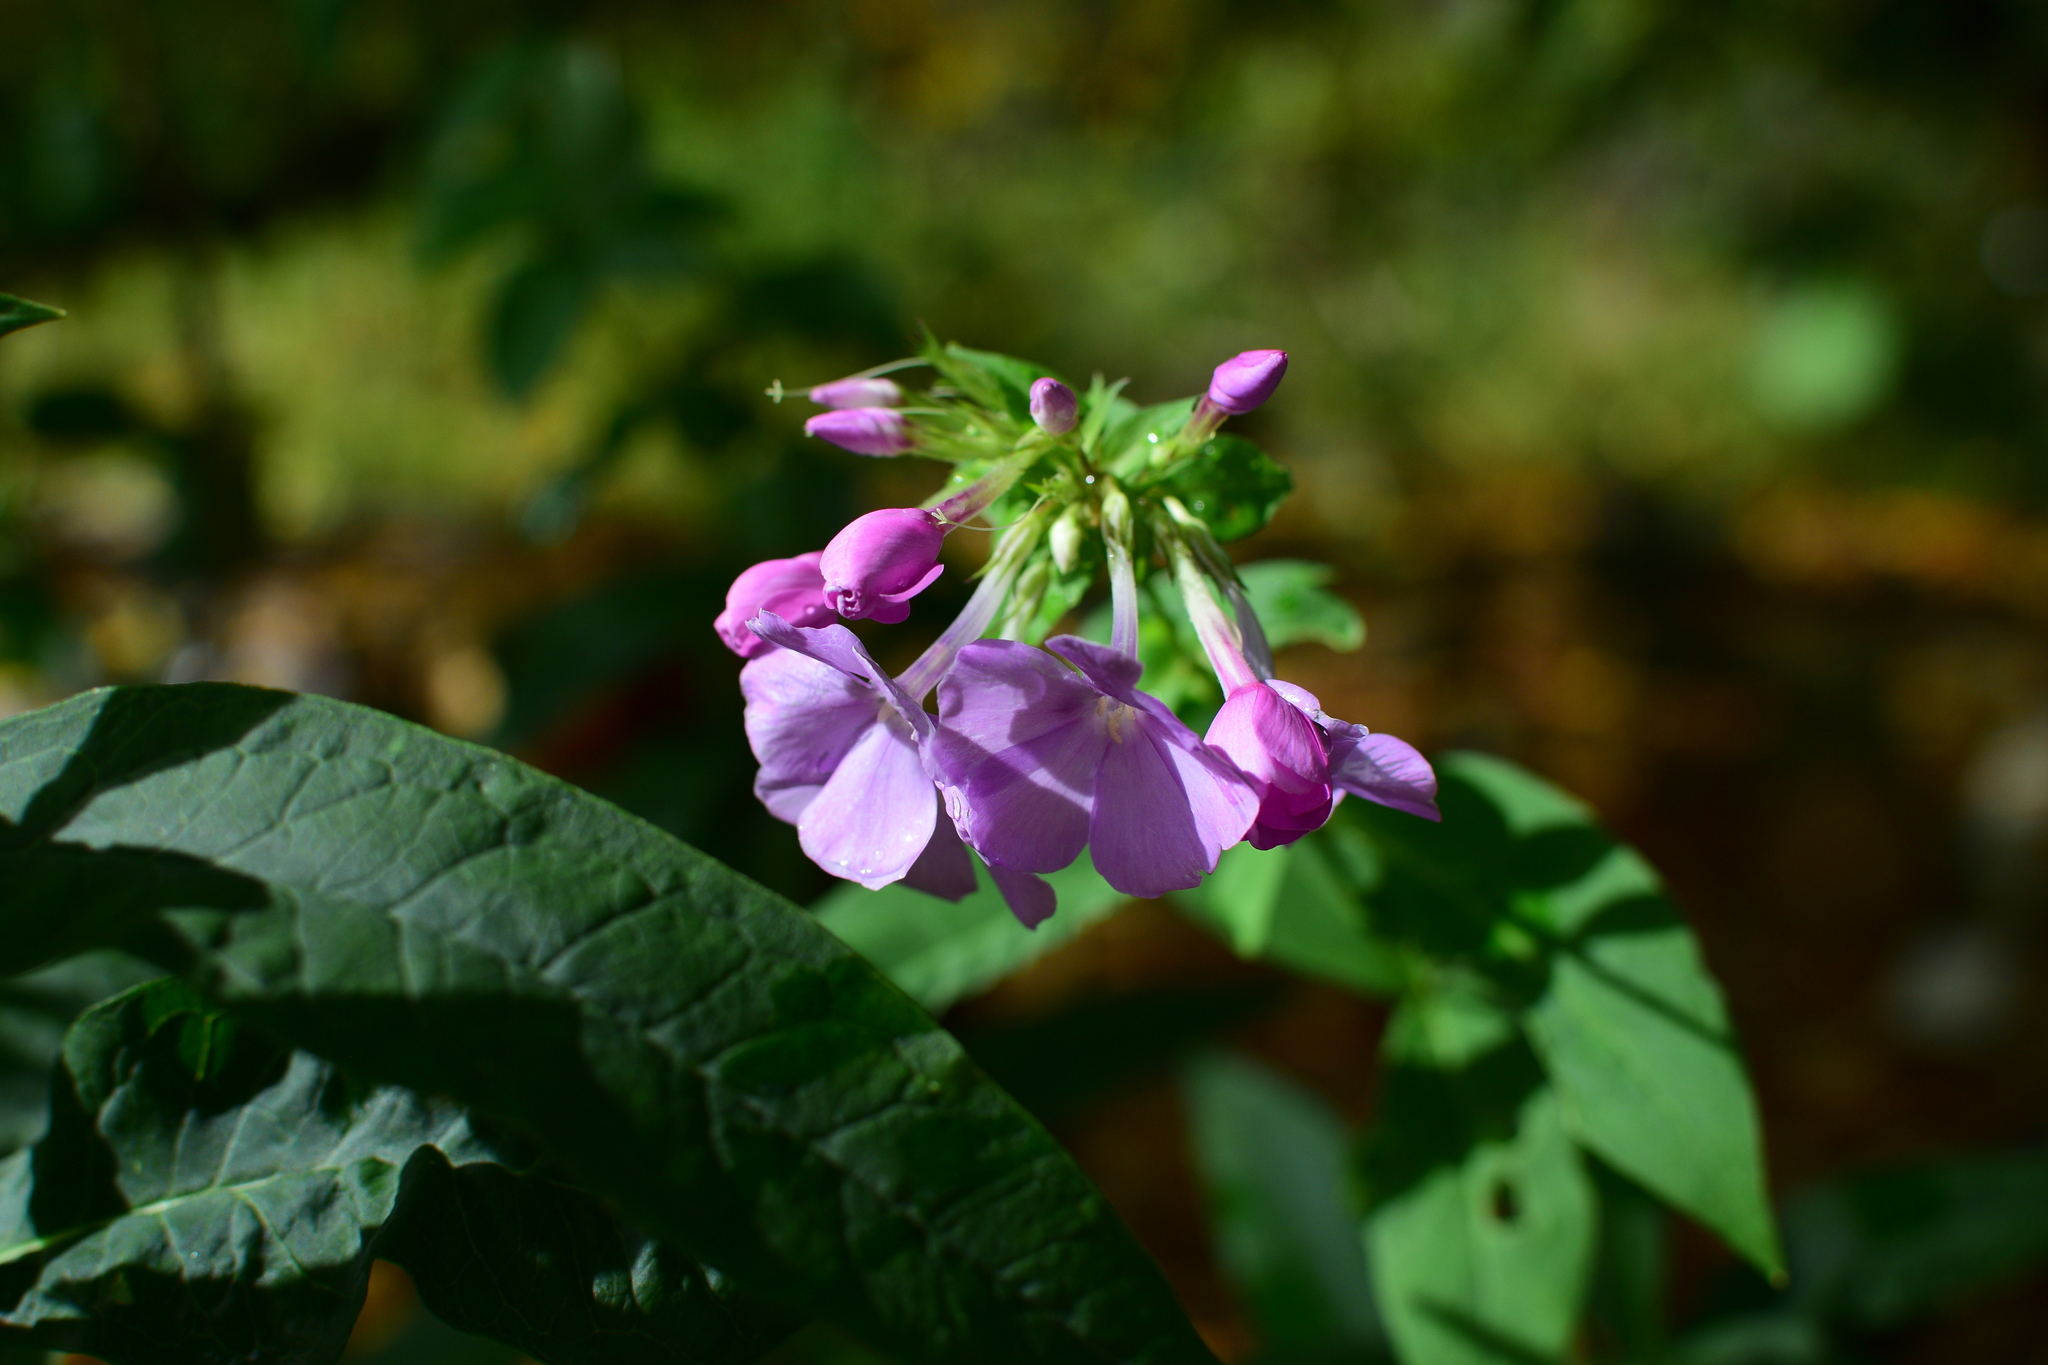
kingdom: Plantae
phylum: Tracheophyta
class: Magnoliopsida
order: Ericales
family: Polemoniaceae
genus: Phlox
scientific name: Phlox paniculata
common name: Fall phlox
